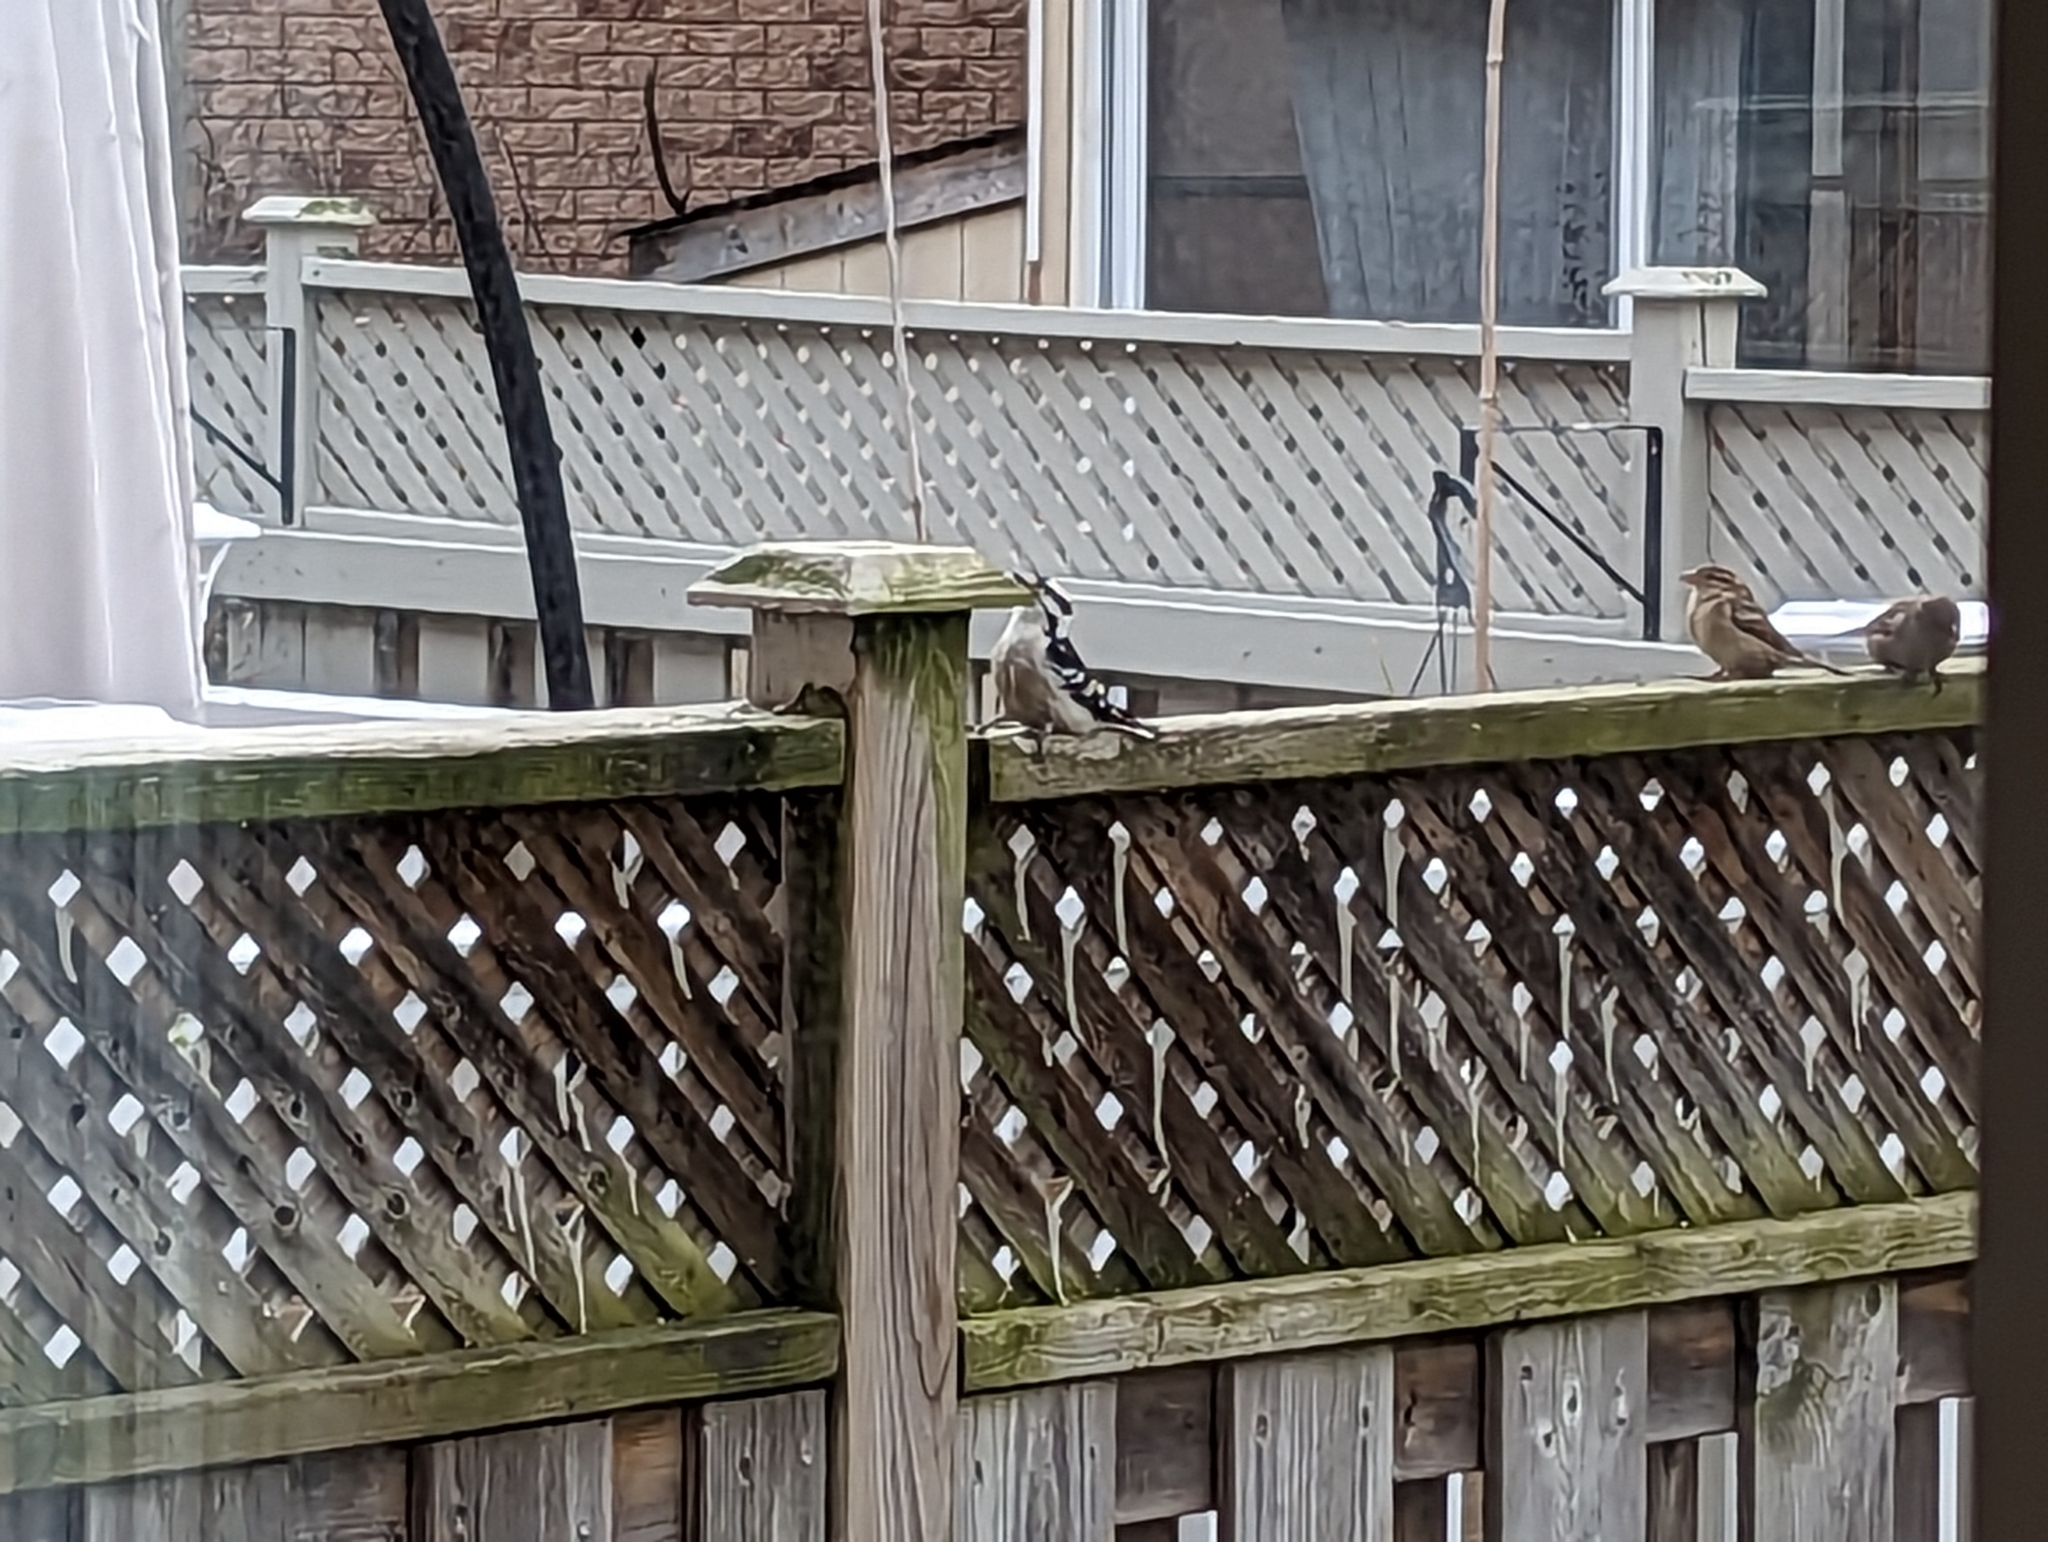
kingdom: Animalia
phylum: Chordata
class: Aves
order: Piciformes
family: Picidae
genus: Dryobates
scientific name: Dryobates pubescens
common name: Downy woodpecker
